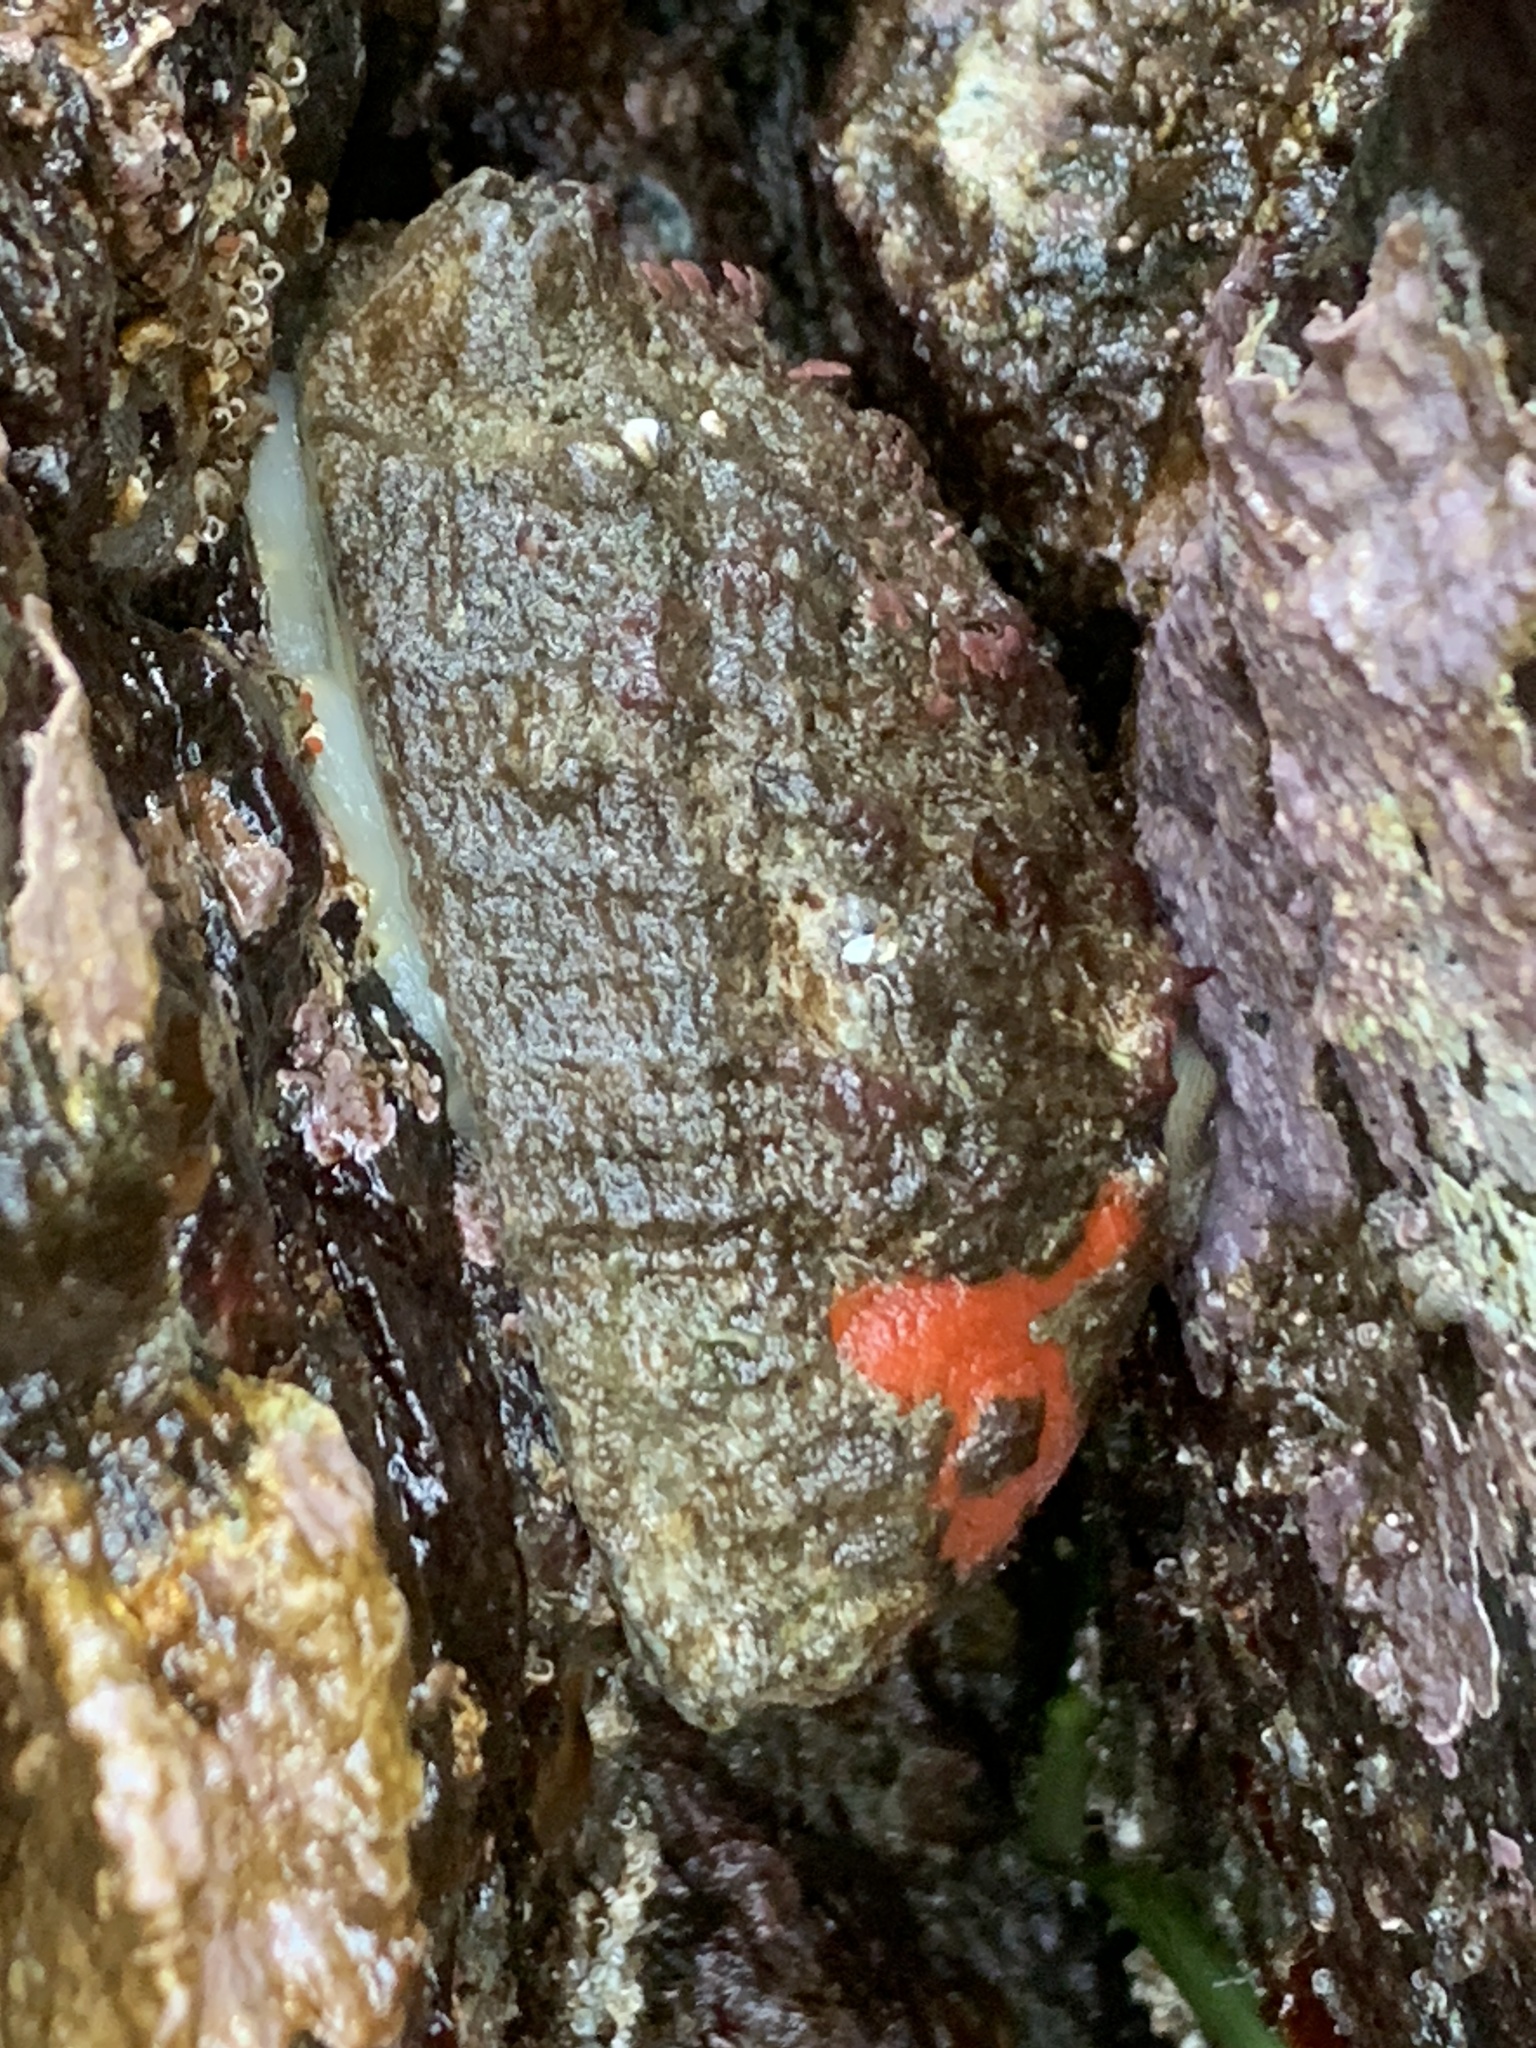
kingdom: Animalia
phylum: Mollusca
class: Gastropoda
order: Lepetellida
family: Fissurellidae
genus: Diodora
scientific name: Diodora aspera
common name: Rough keyhole limpet
